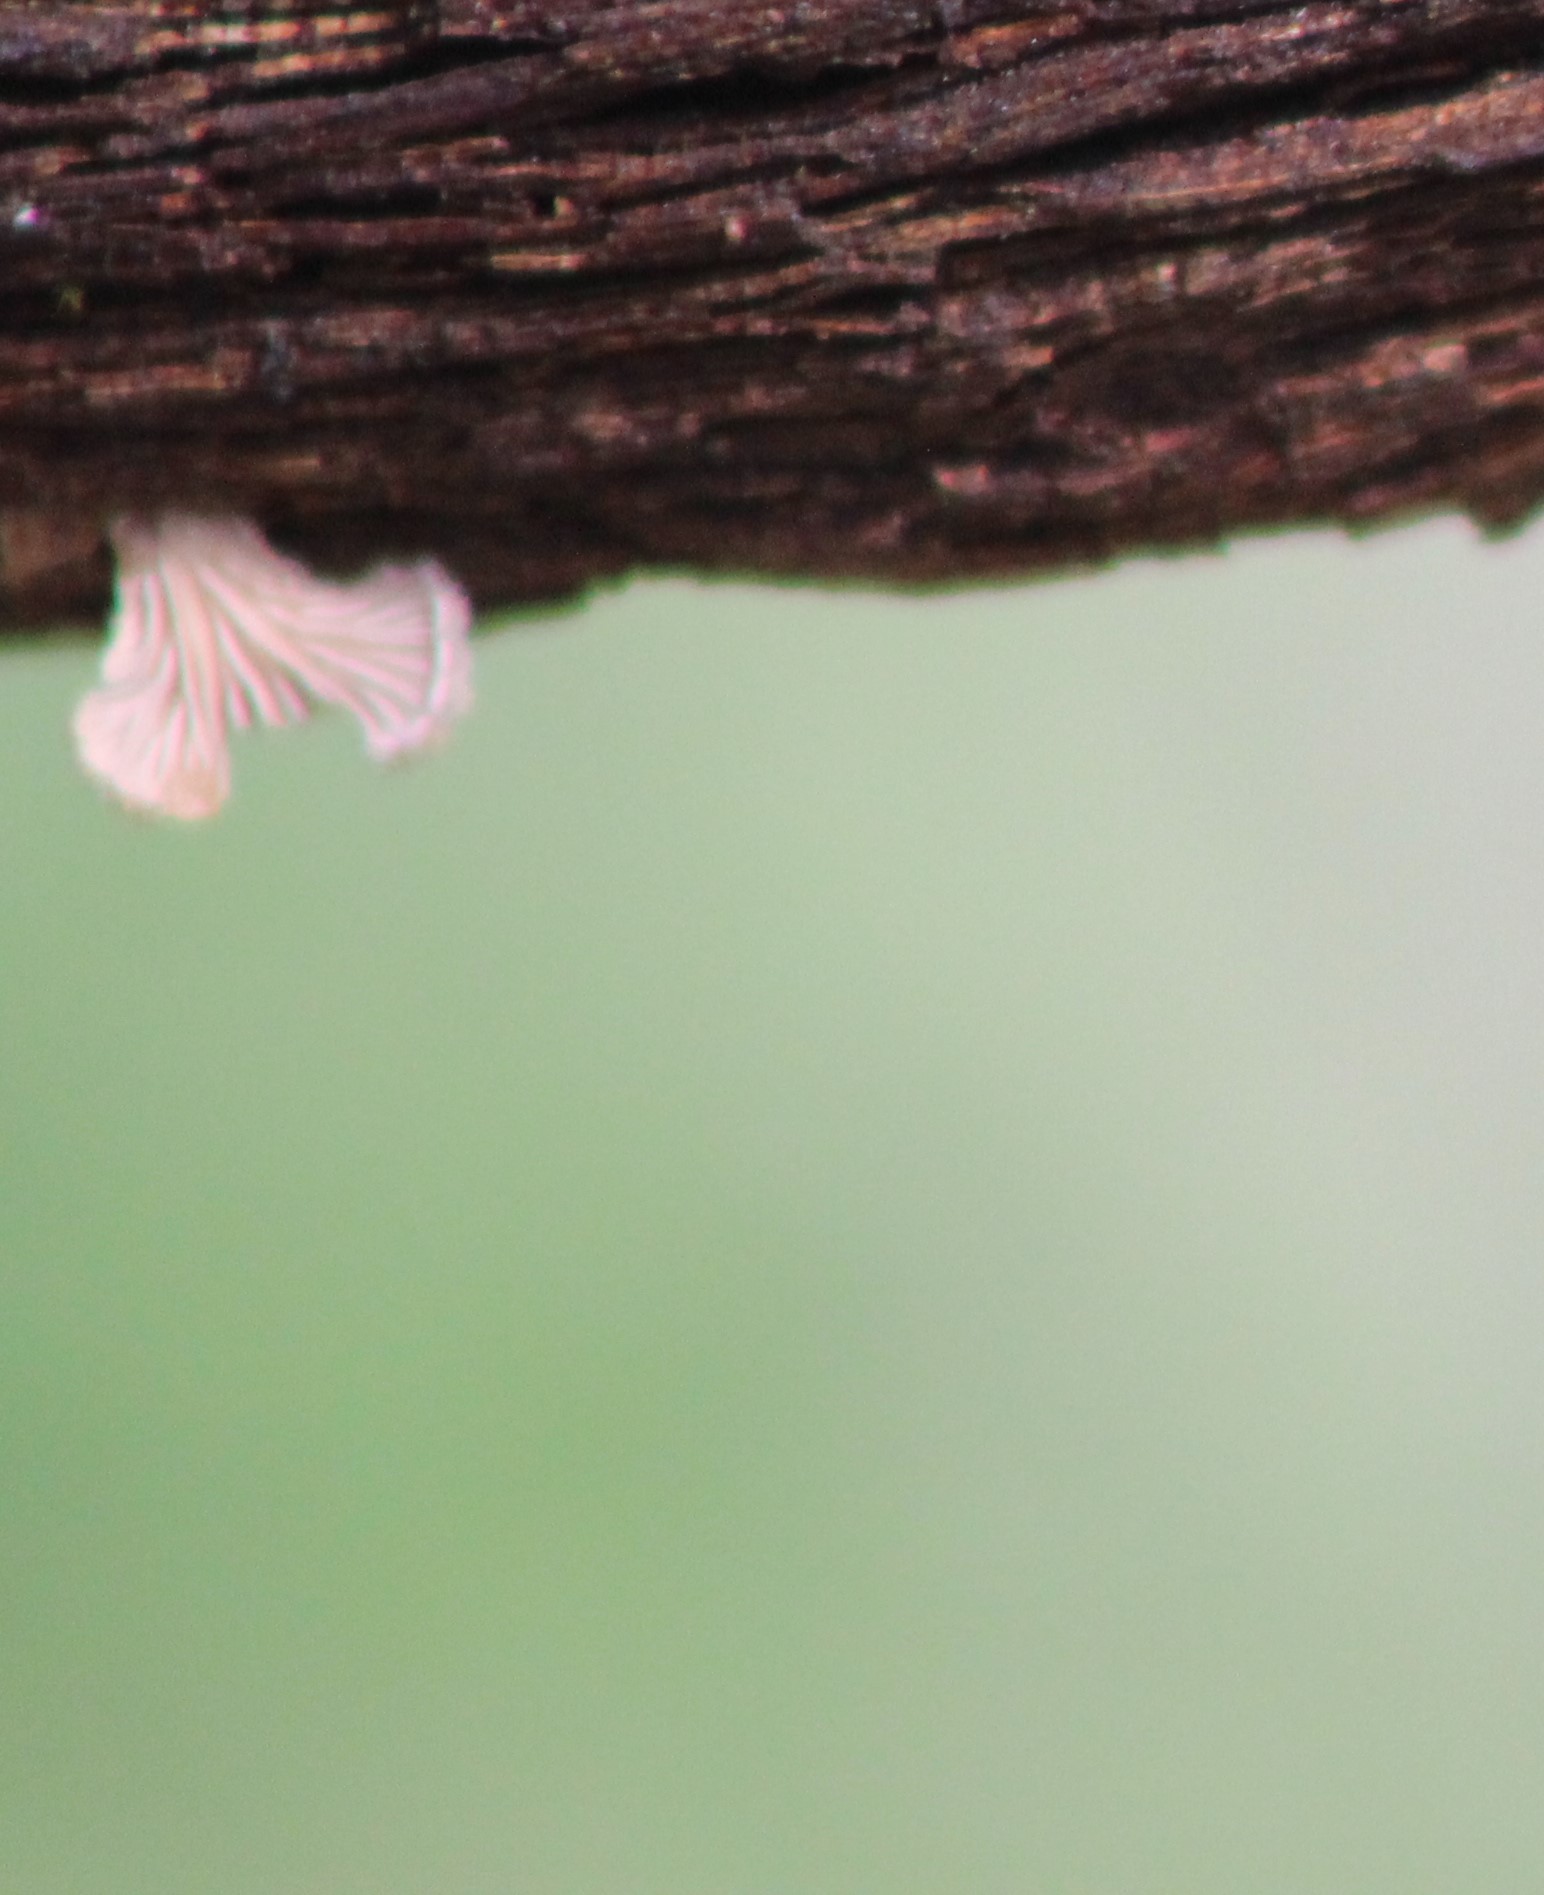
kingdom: Fungi
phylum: Basidiomycota
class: Agaricomycetes
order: Agaricales
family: Schizophyllaceae
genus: Schizophyllum
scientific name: Schizophyllum commune
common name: Common porecrust
